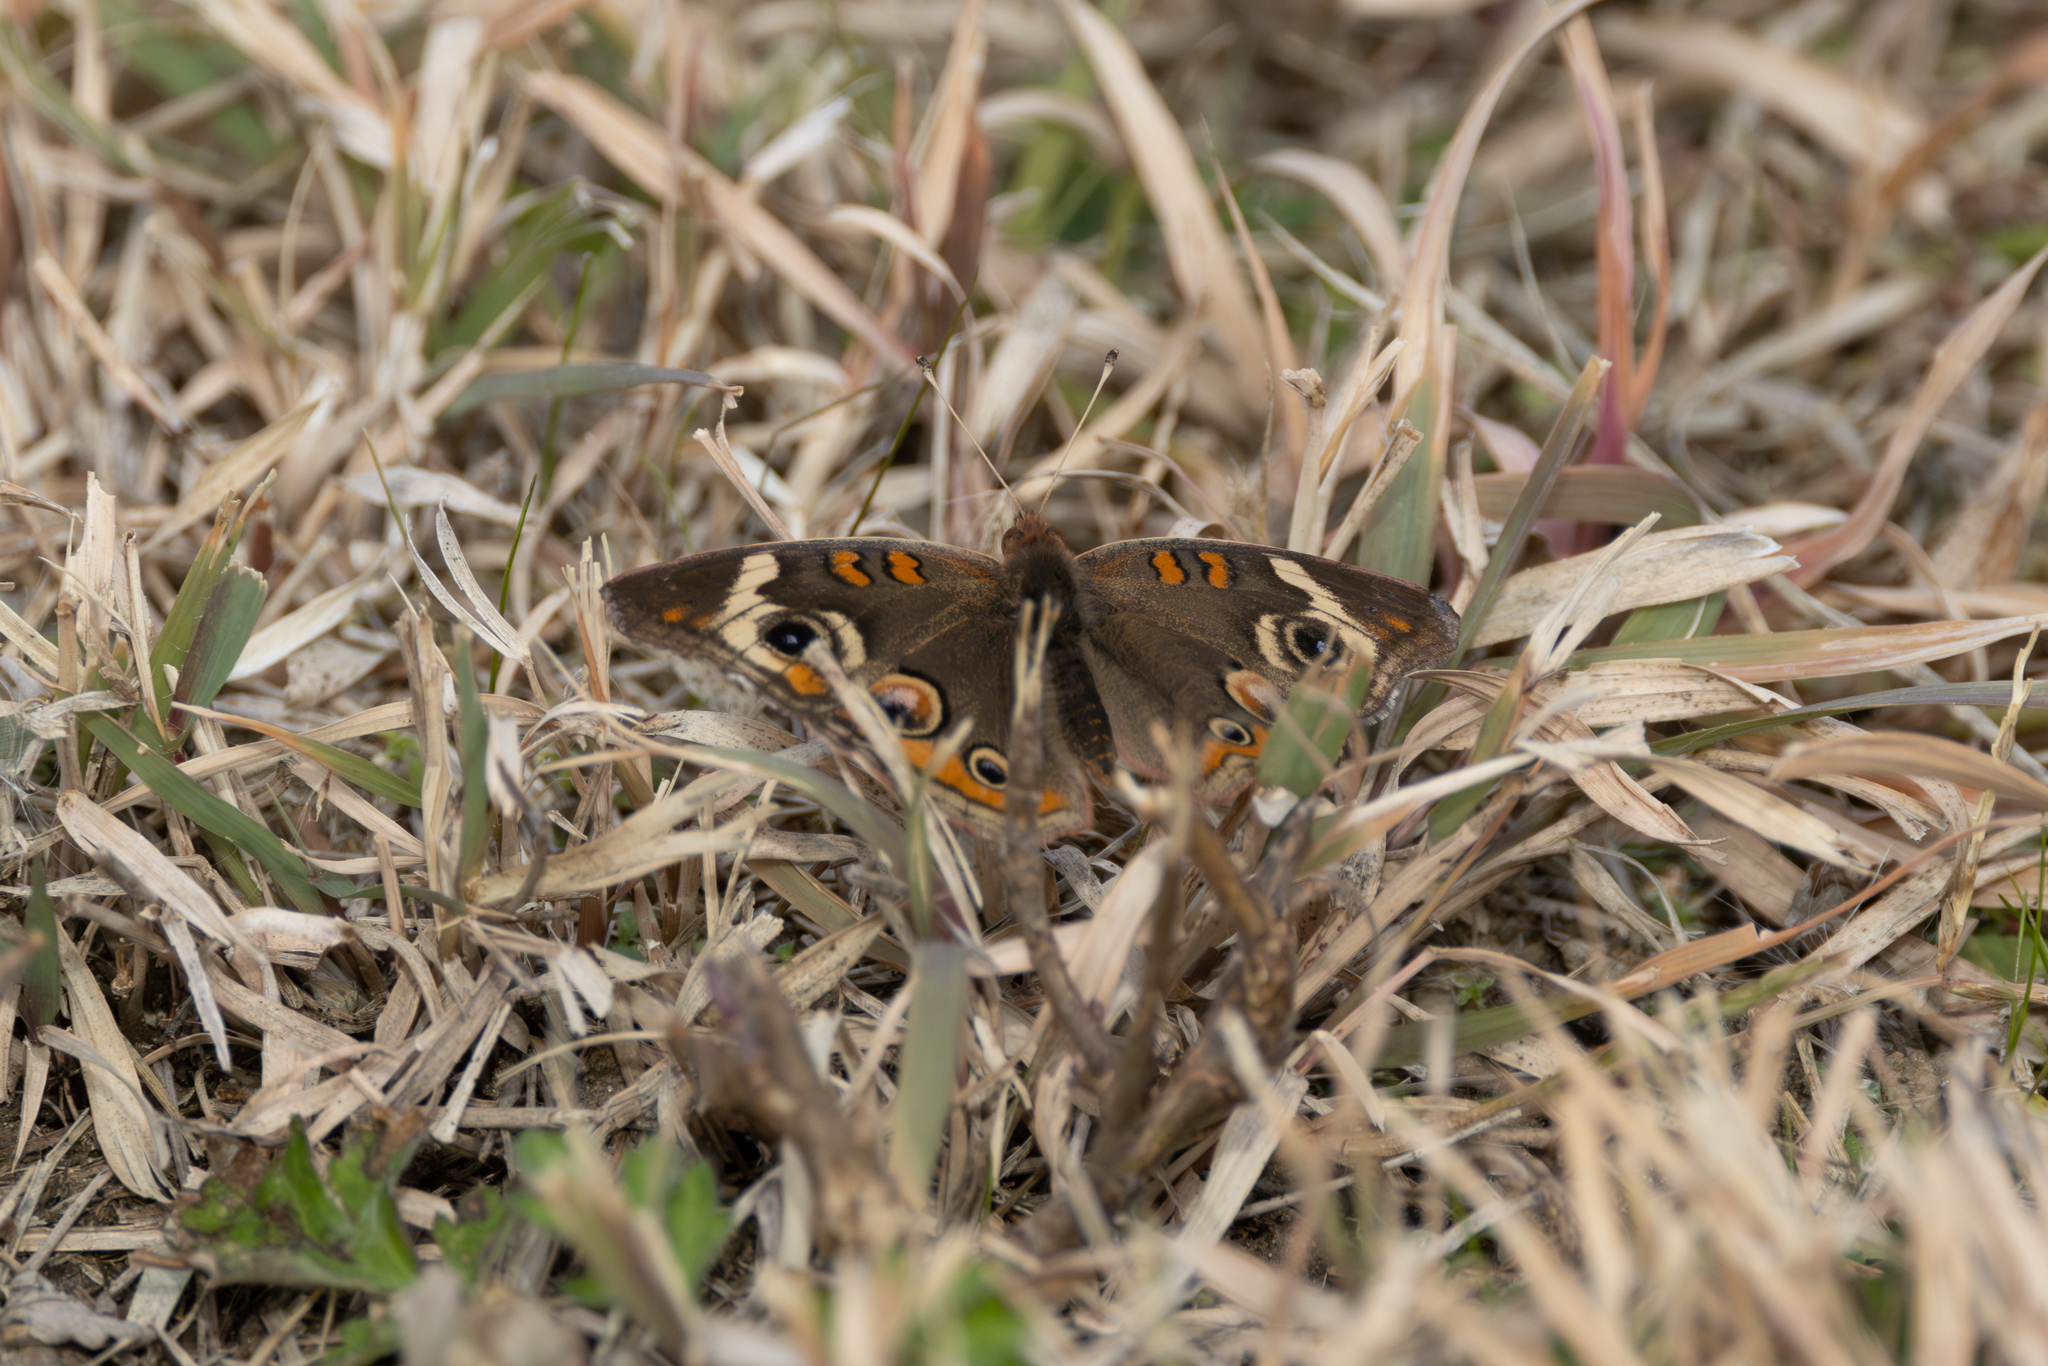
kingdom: Animalia
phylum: Arthropoda
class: Insecta
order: Lepidoptera
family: Nymphalidae
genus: Junonia
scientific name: Junonia coenia
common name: Common buckeye
